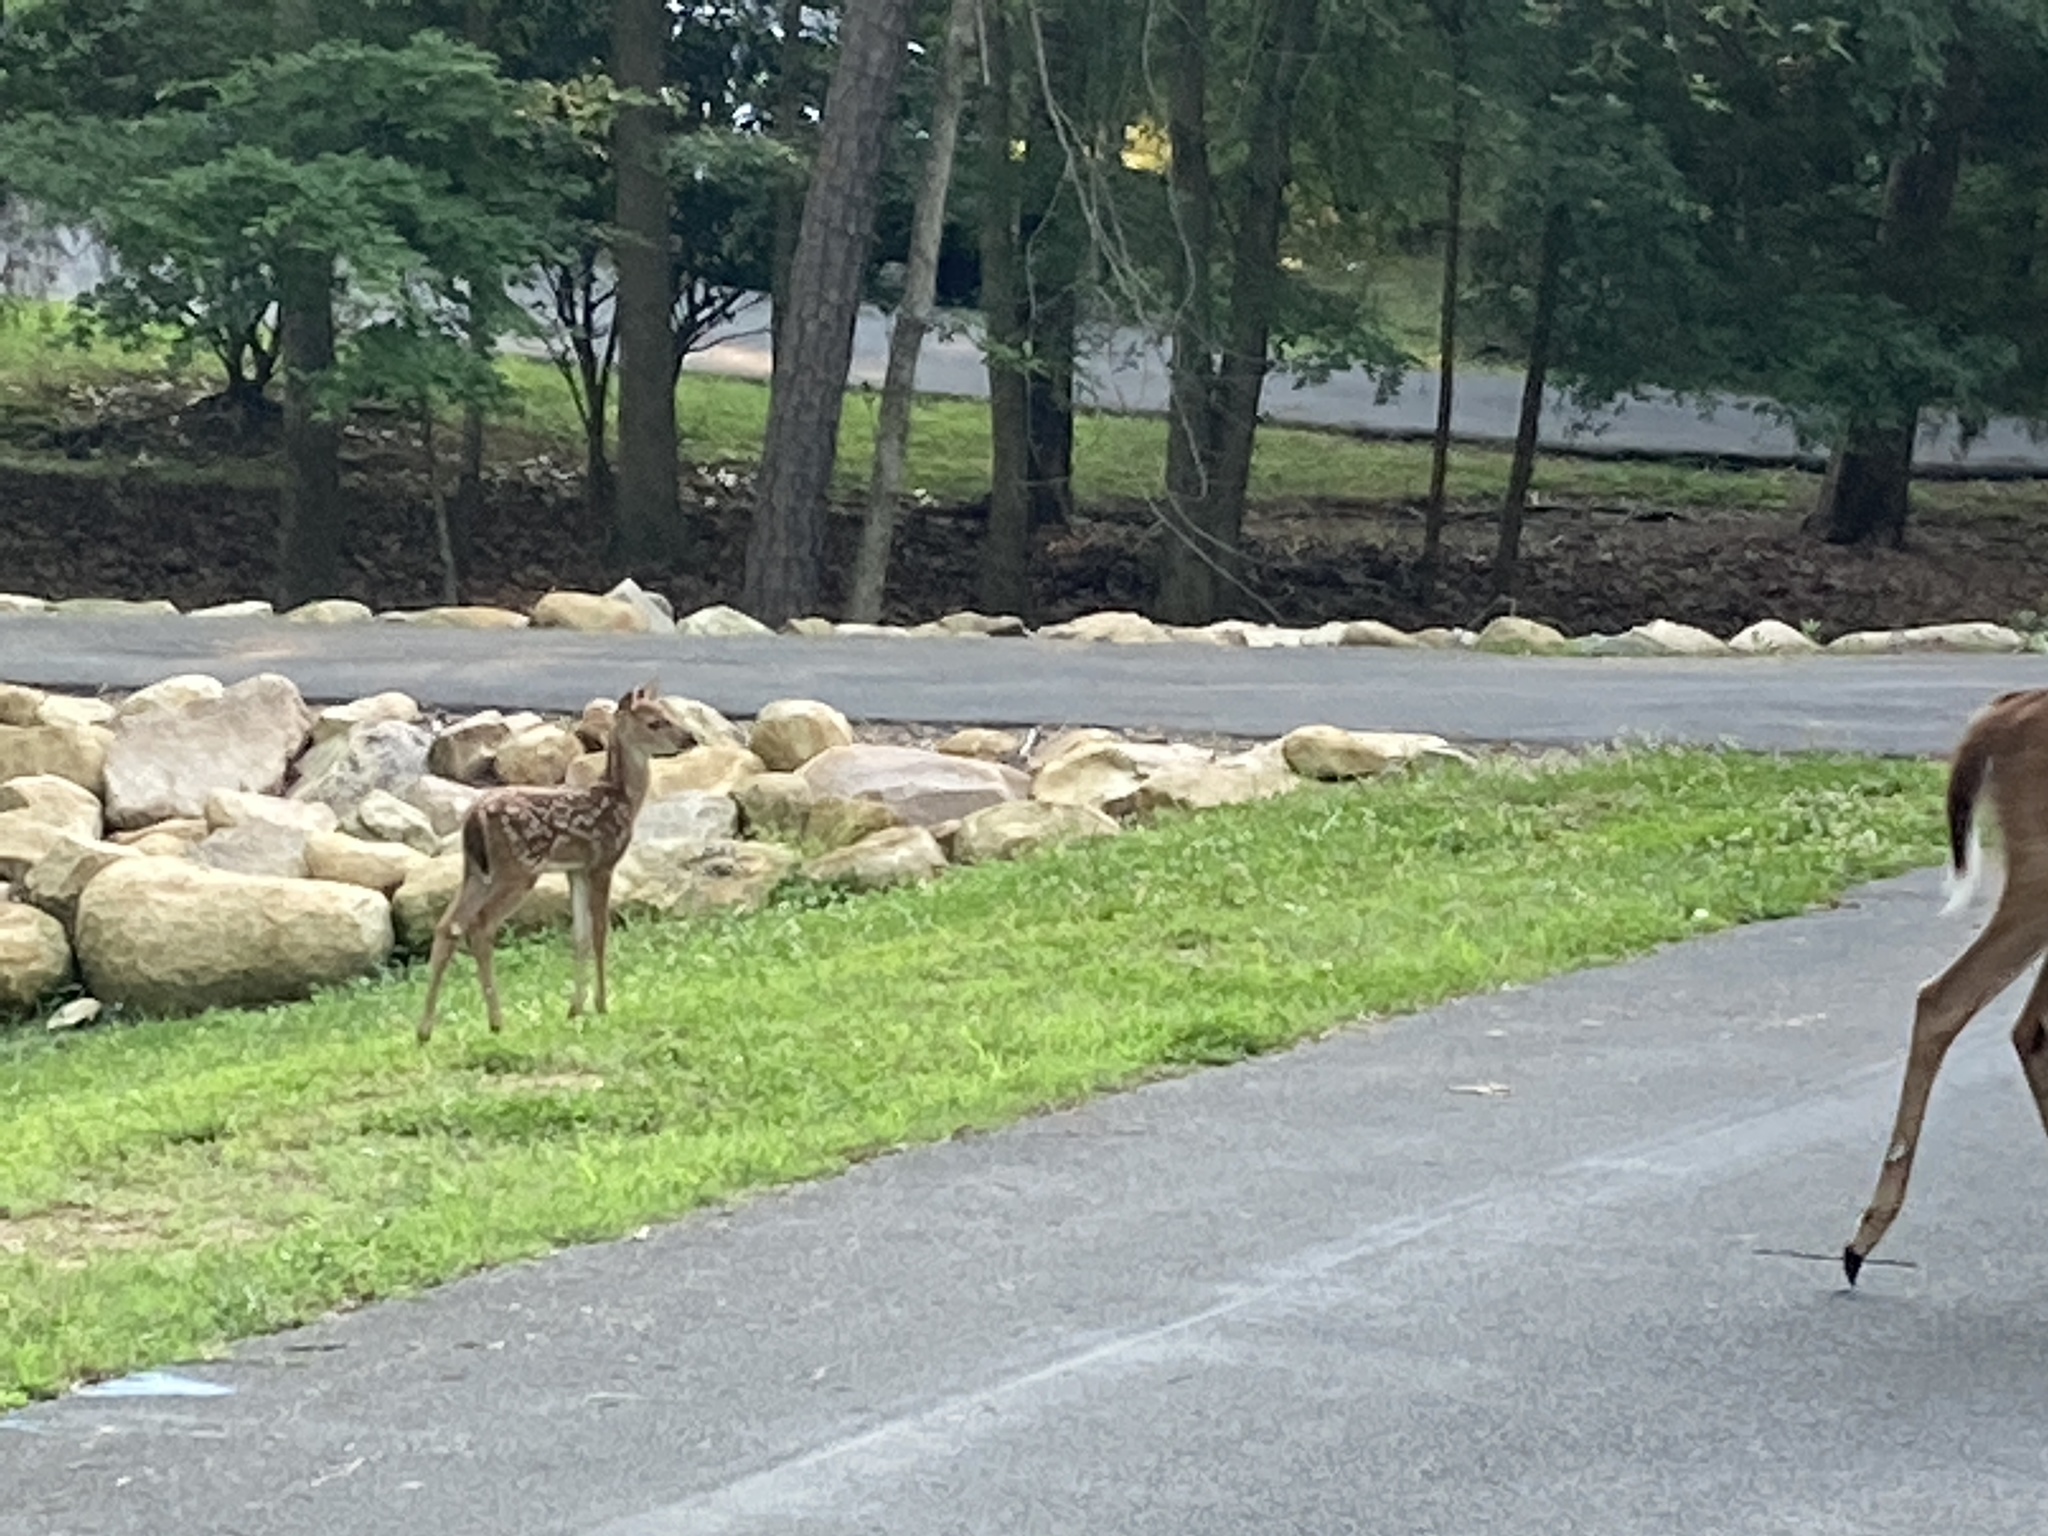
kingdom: Animalia
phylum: Chordata
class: Mammalia
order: Artiodactyla
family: Cervidae
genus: Odocoileus
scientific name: Odocoileus virginianus
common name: White-tailed deer
